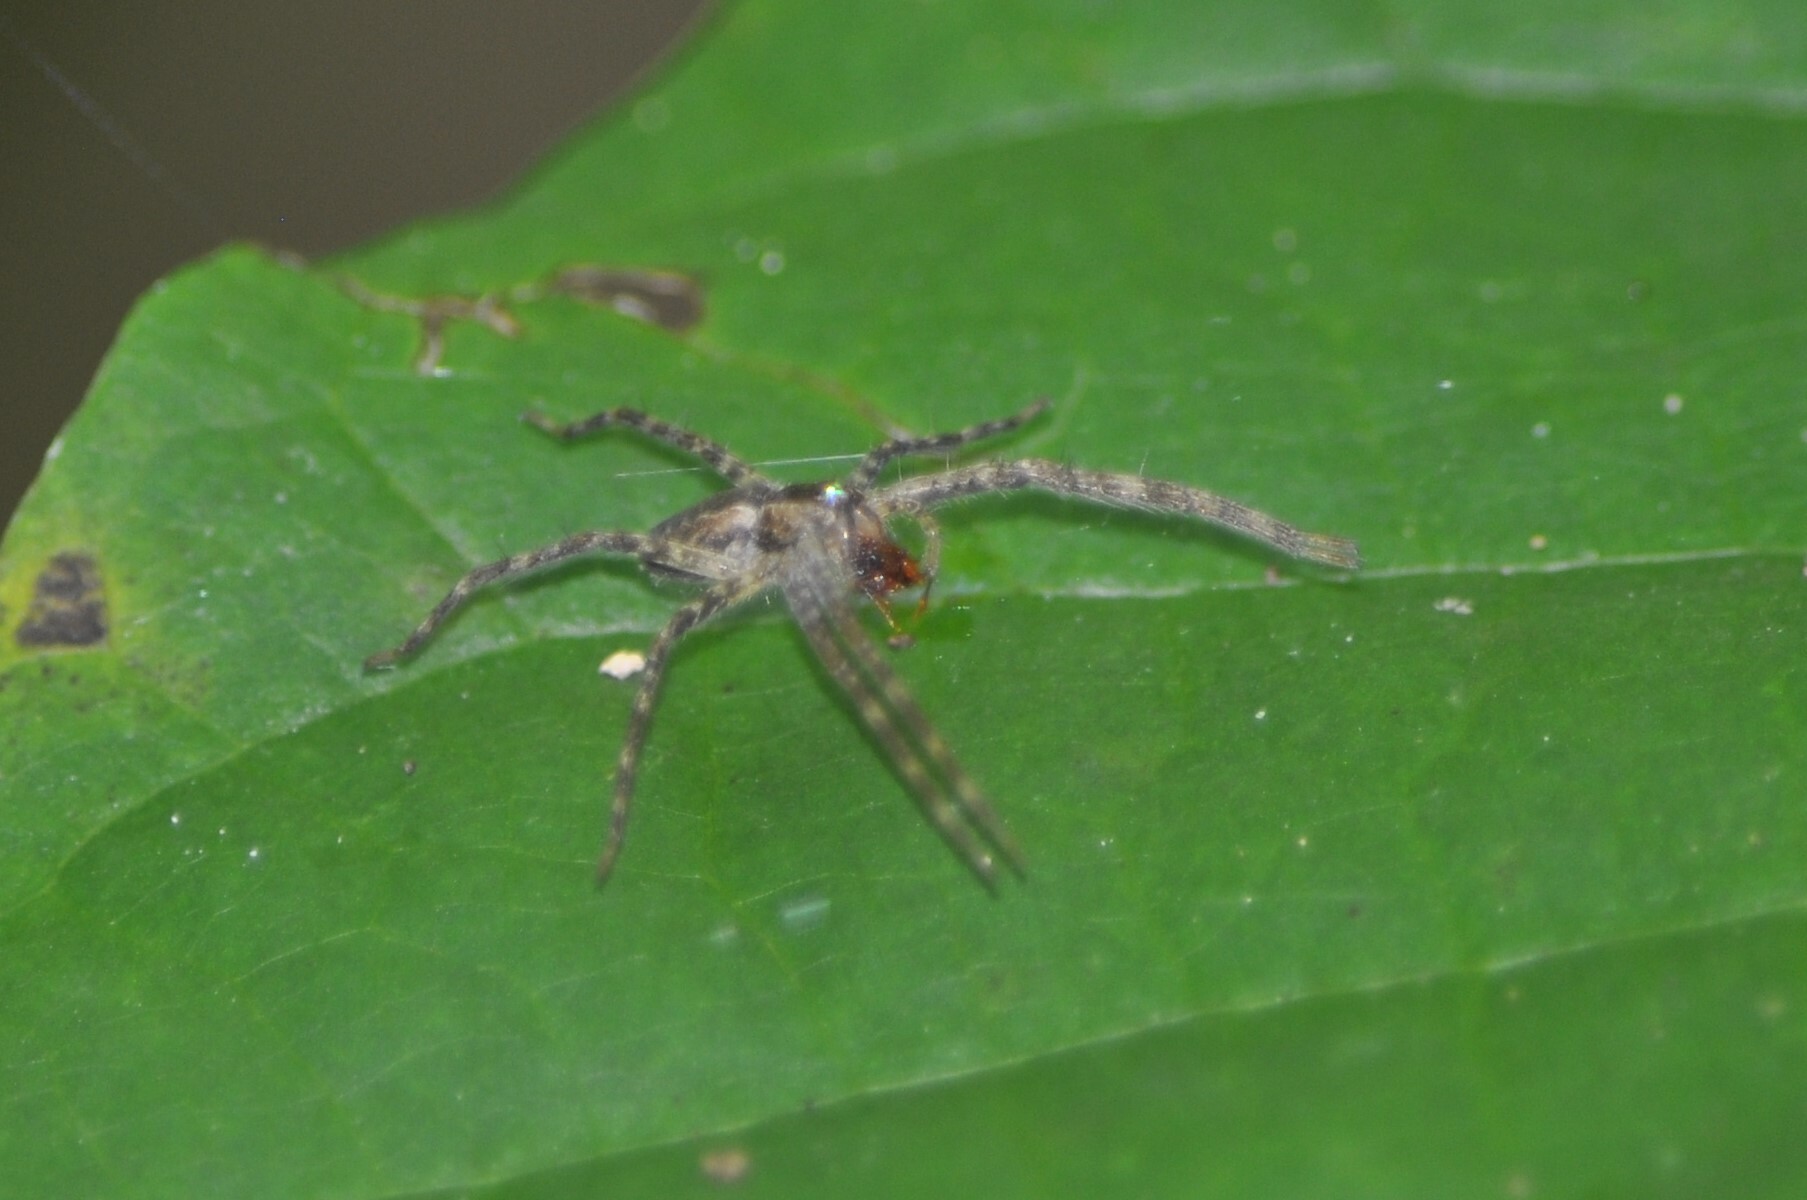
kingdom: Animalia
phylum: Arthropoda
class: Arachnida
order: Araneae
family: Pisauridae
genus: Pisaurina
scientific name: Pisaurina mira
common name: American nursery web spider
